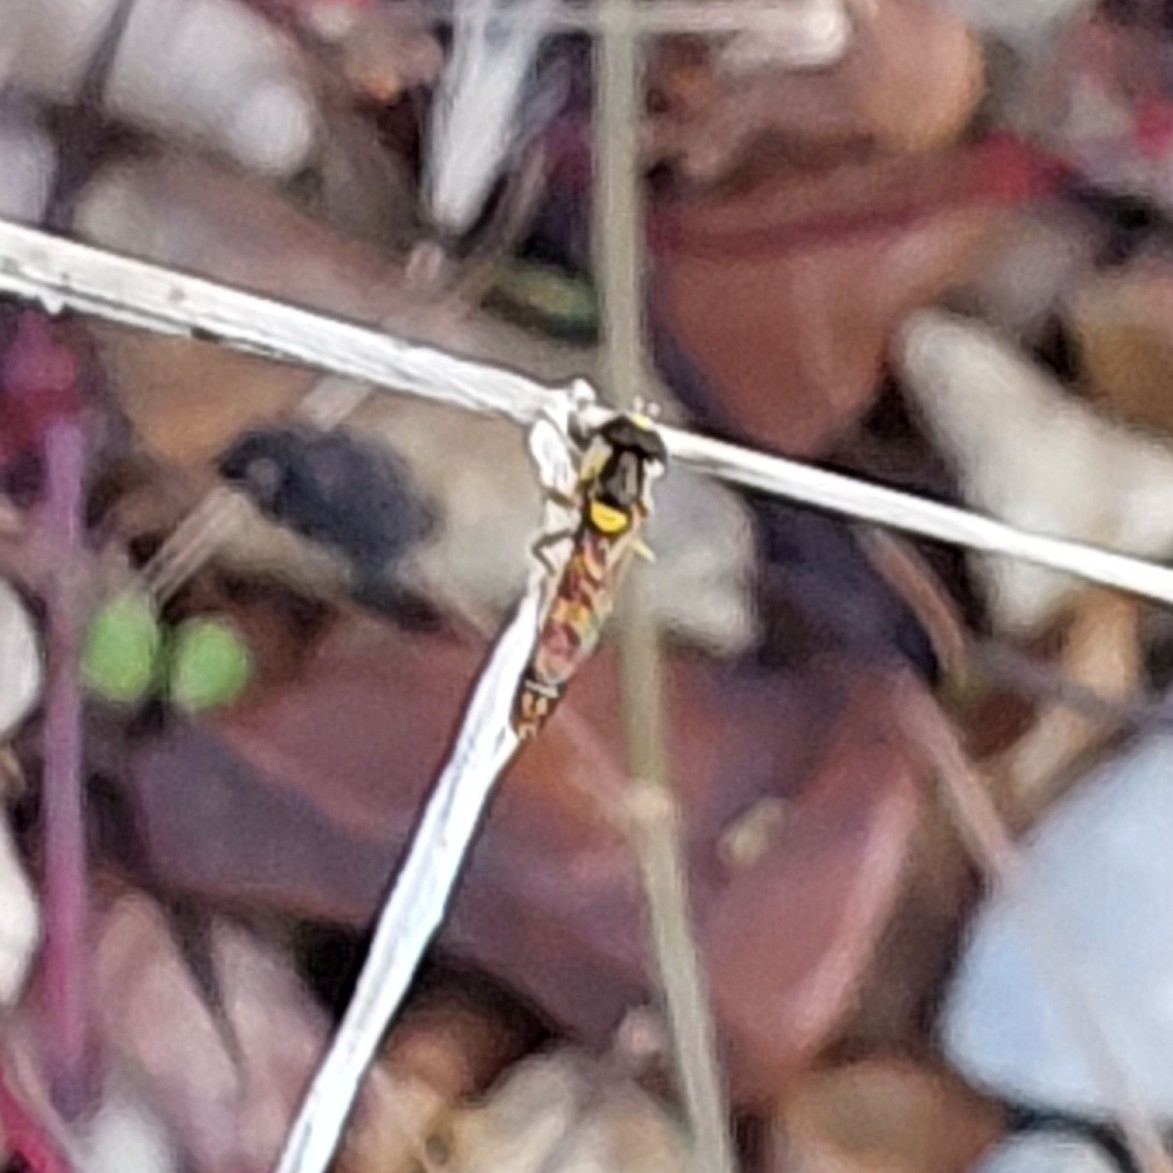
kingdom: Animalia
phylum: Arthropoda
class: Insecta
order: Diptera
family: Syrphidae
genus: Sphaerophoria
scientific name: Sphaerophoria scripta
